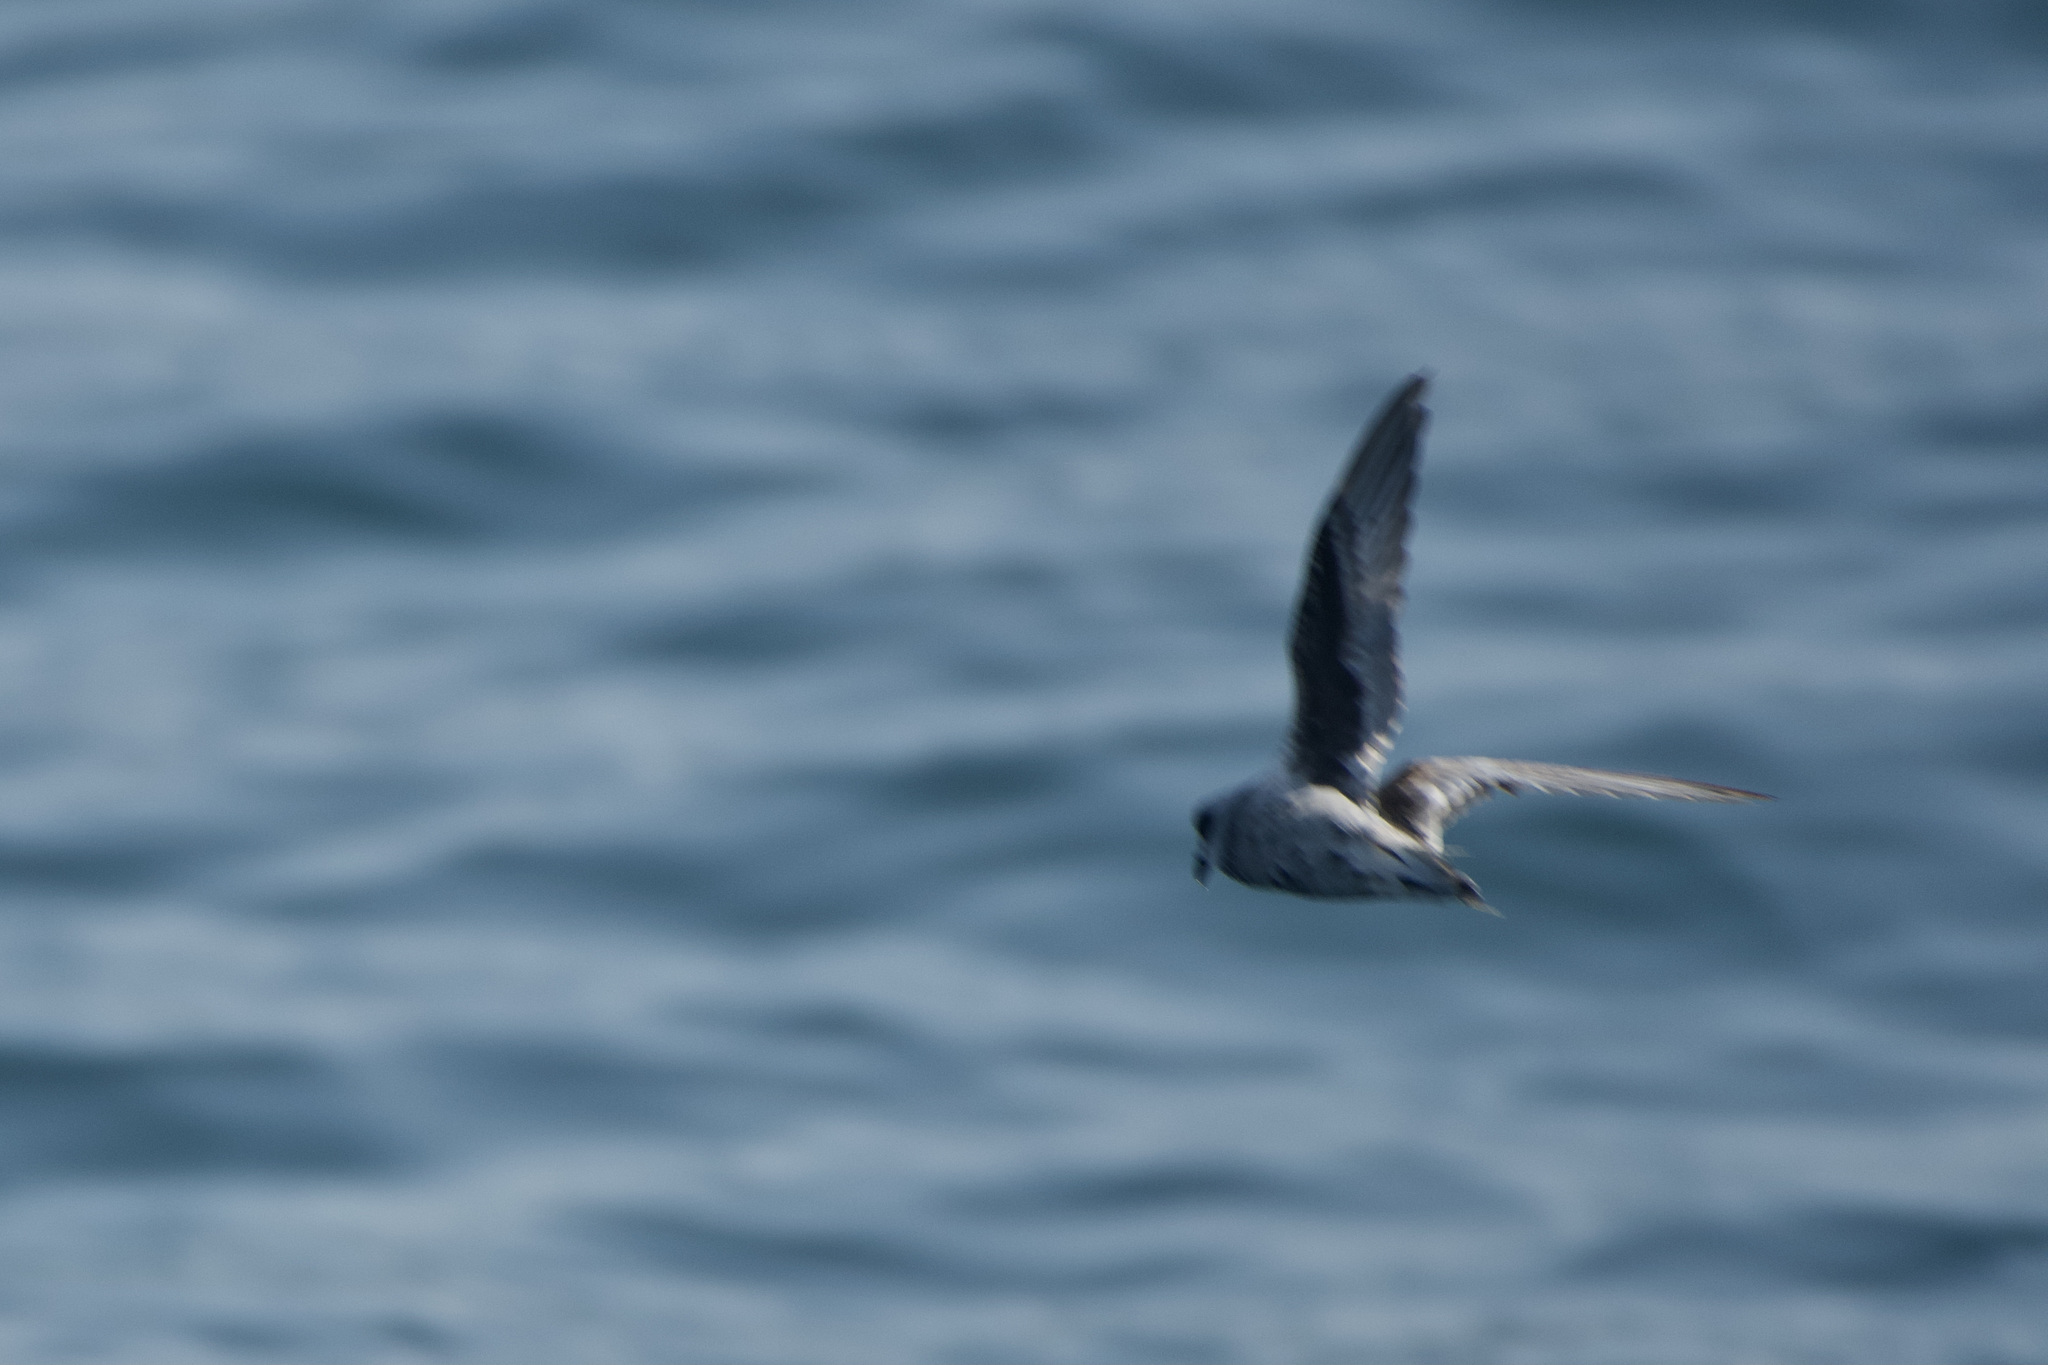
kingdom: Animalia
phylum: Chordata
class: Aves
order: Procellariiformes
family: Hydrobatidae
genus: Oceanodroma
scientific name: Oceanodroma furcata
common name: Fork-tailed storm-petrel
